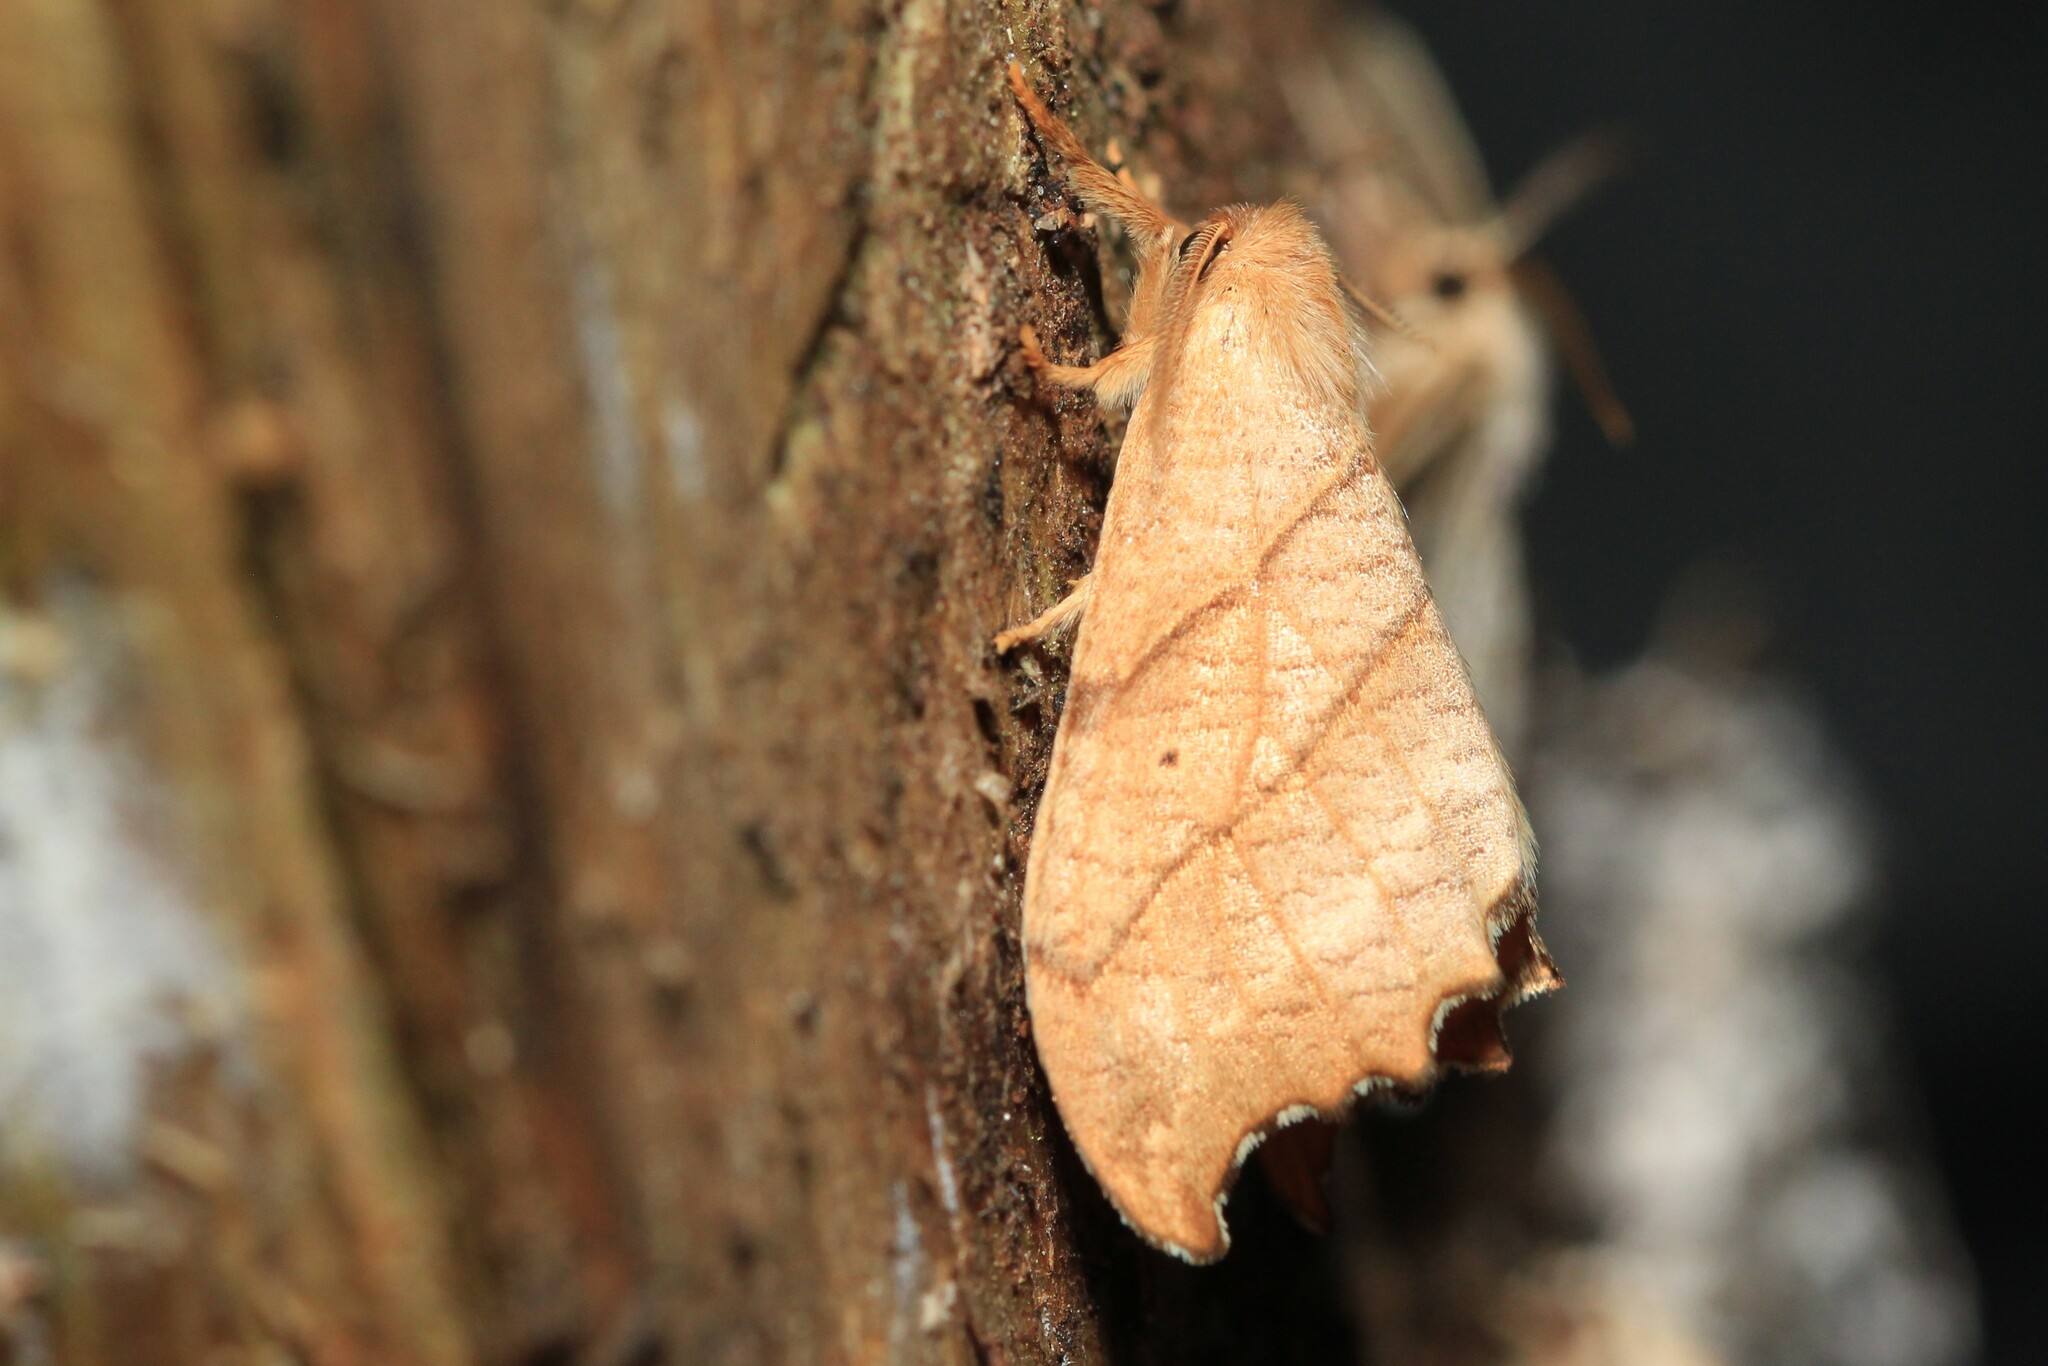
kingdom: Animalia
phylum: Arthropoda
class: Insecta
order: Lepidoptera
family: Drepanidae
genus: Falcaria
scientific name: Falcaria bilineata
